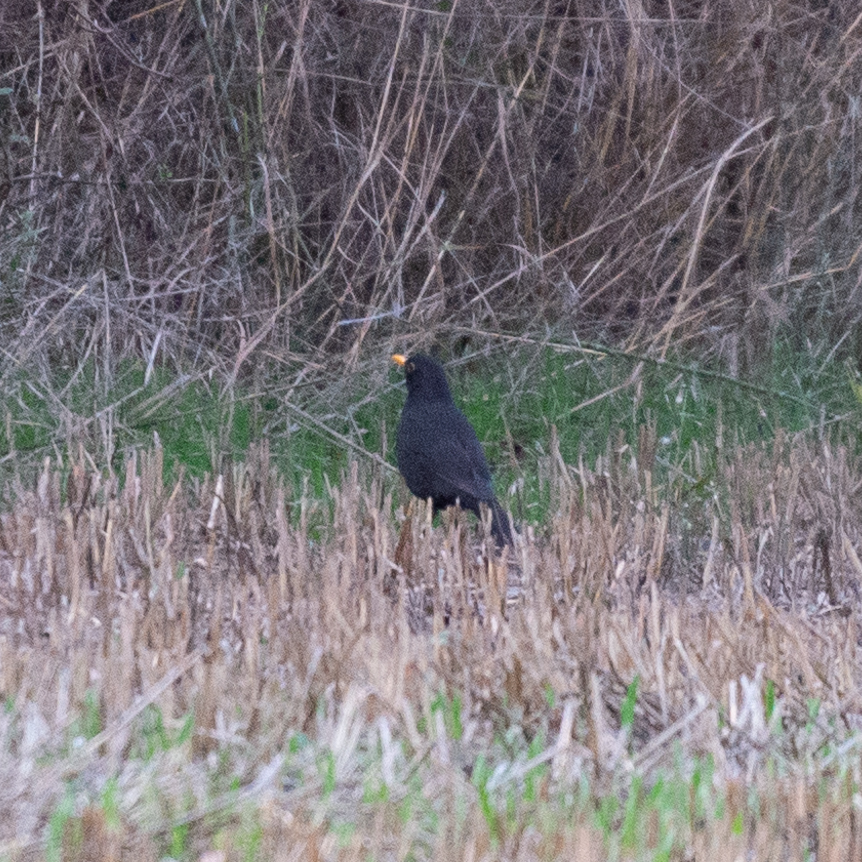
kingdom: Animalia
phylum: Chordata
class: Aves
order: Passeriformes
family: Turdidae
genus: Turdus
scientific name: Turdus merula
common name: Common blackbird
